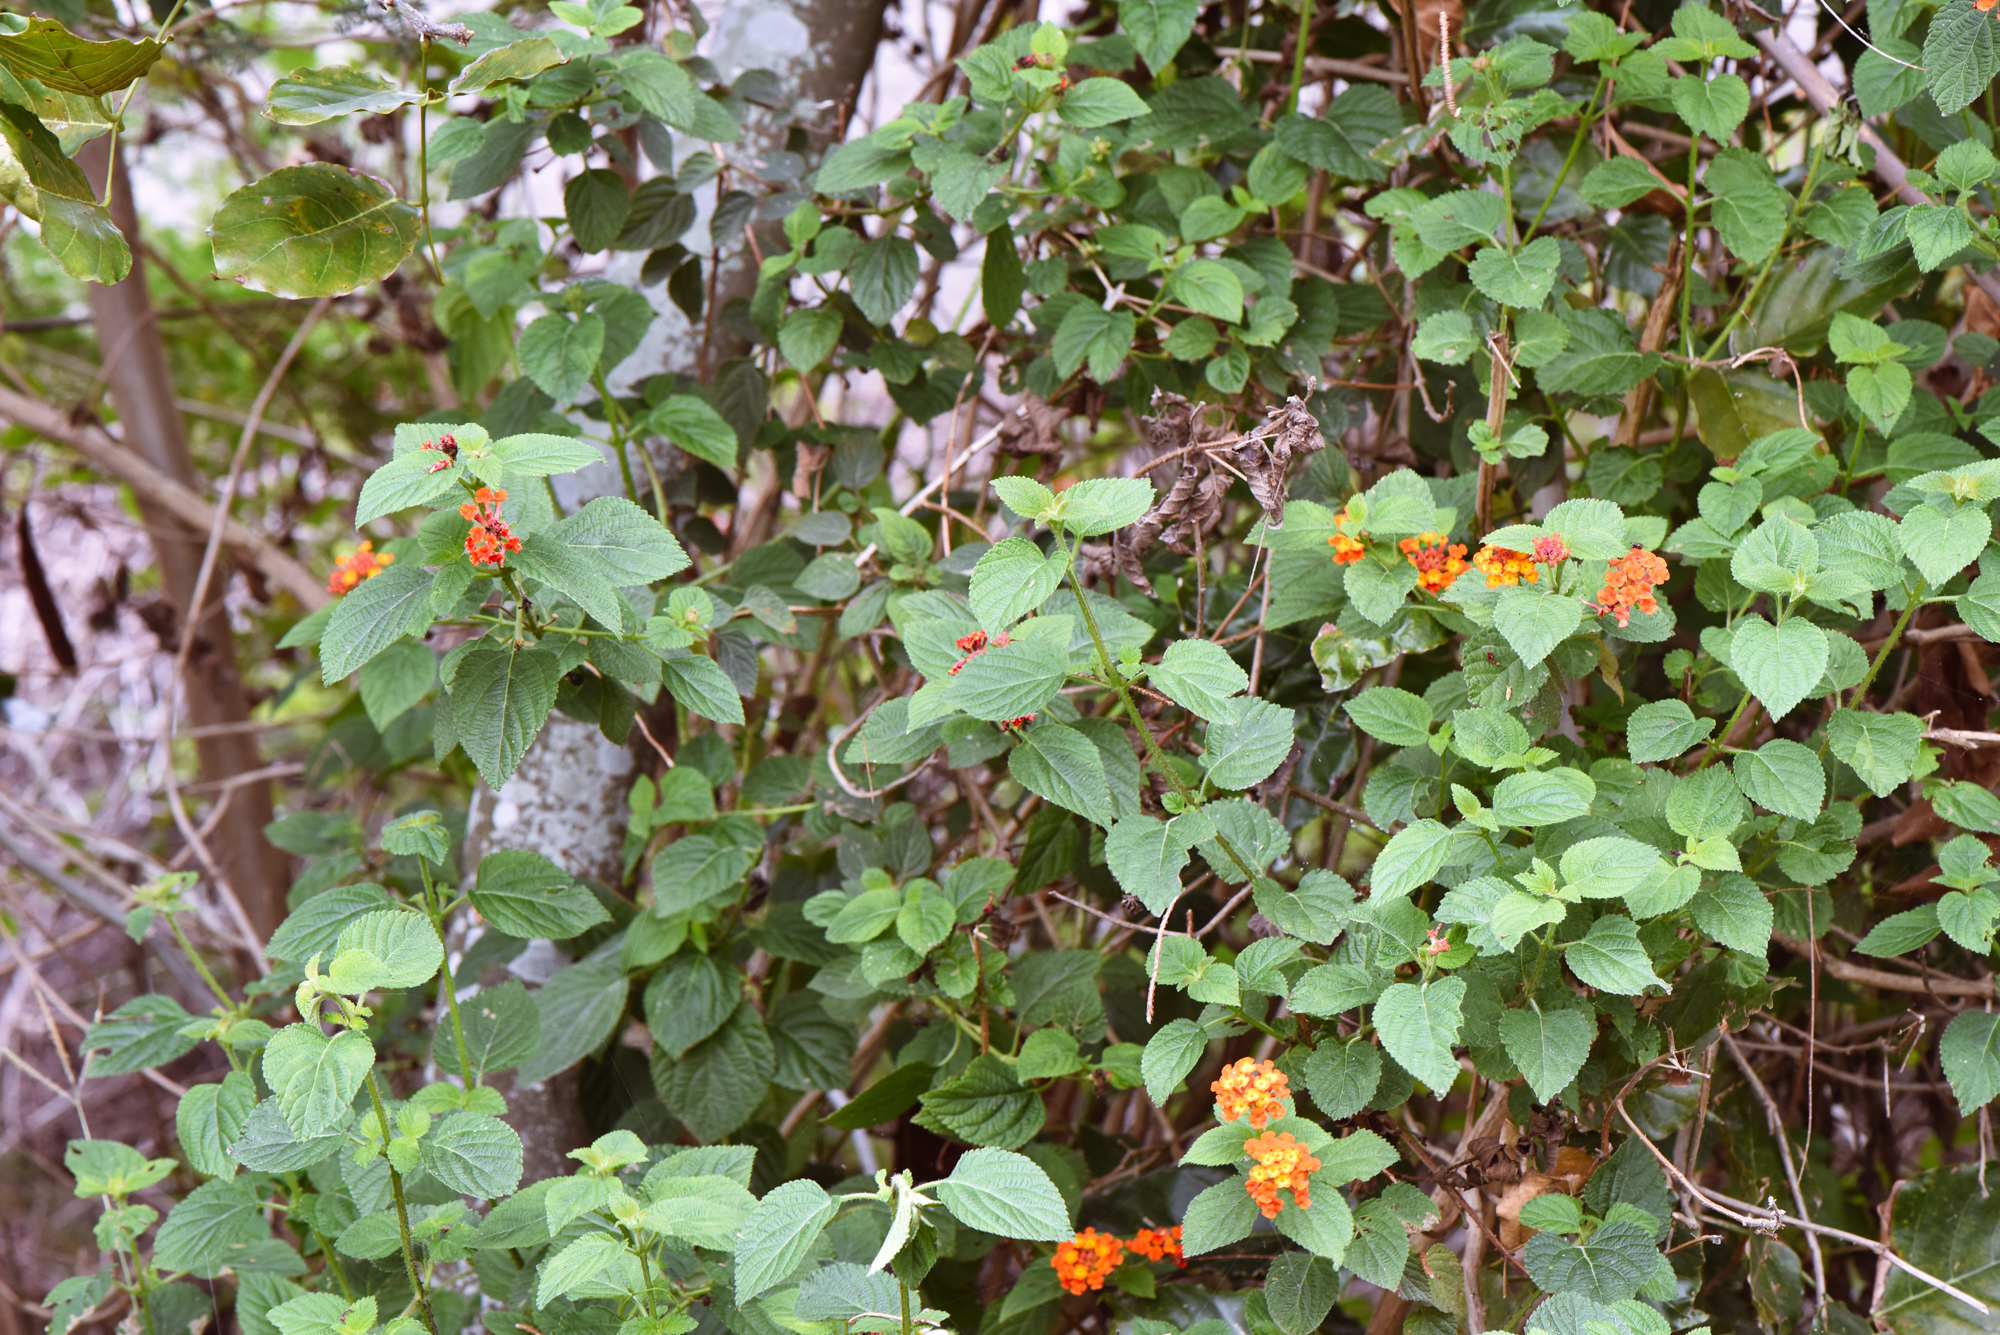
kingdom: Plantae
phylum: Tracheophyta
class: Magnoliopsida
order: Lamiales
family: Verbenaceae
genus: Lantana
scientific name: Lantana camara
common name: Lantana
